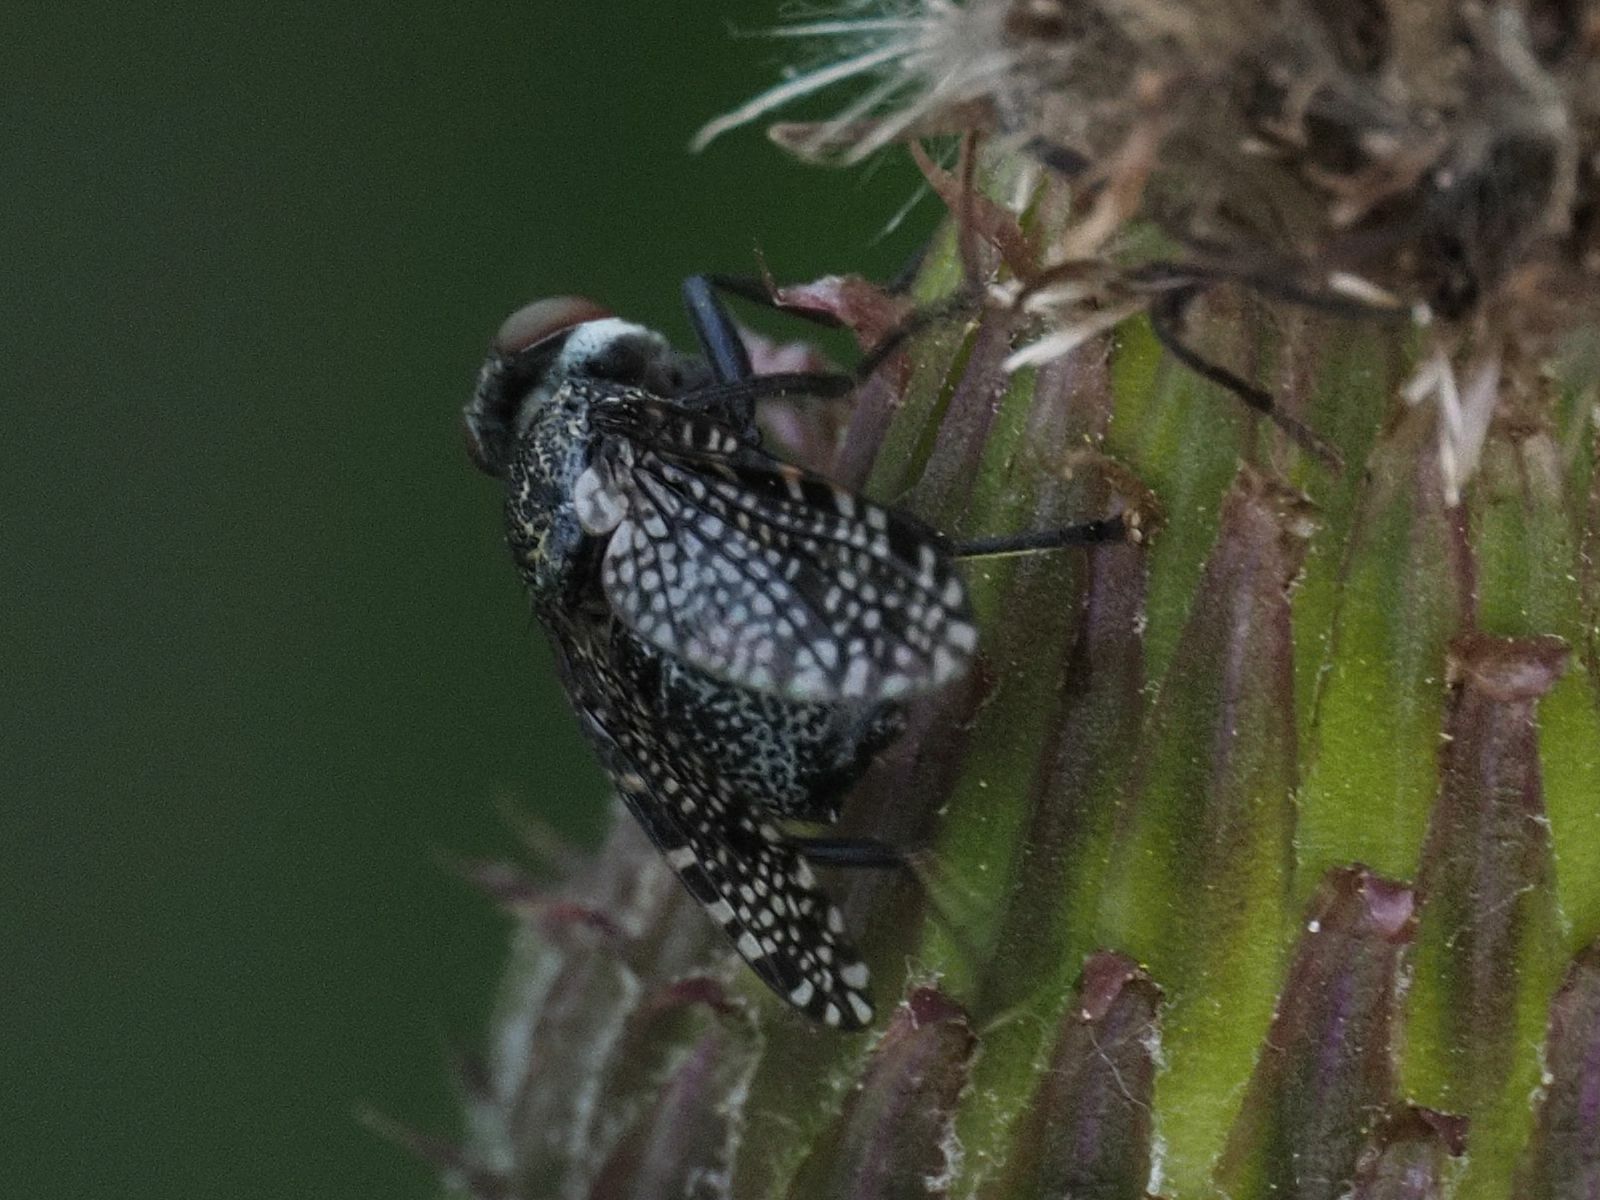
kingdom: Animalia
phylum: Arthropoda
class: Insecta
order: Diptera
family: Platystomatidae
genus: Platystoma
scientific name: Platystoma seminationis
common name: Fly
